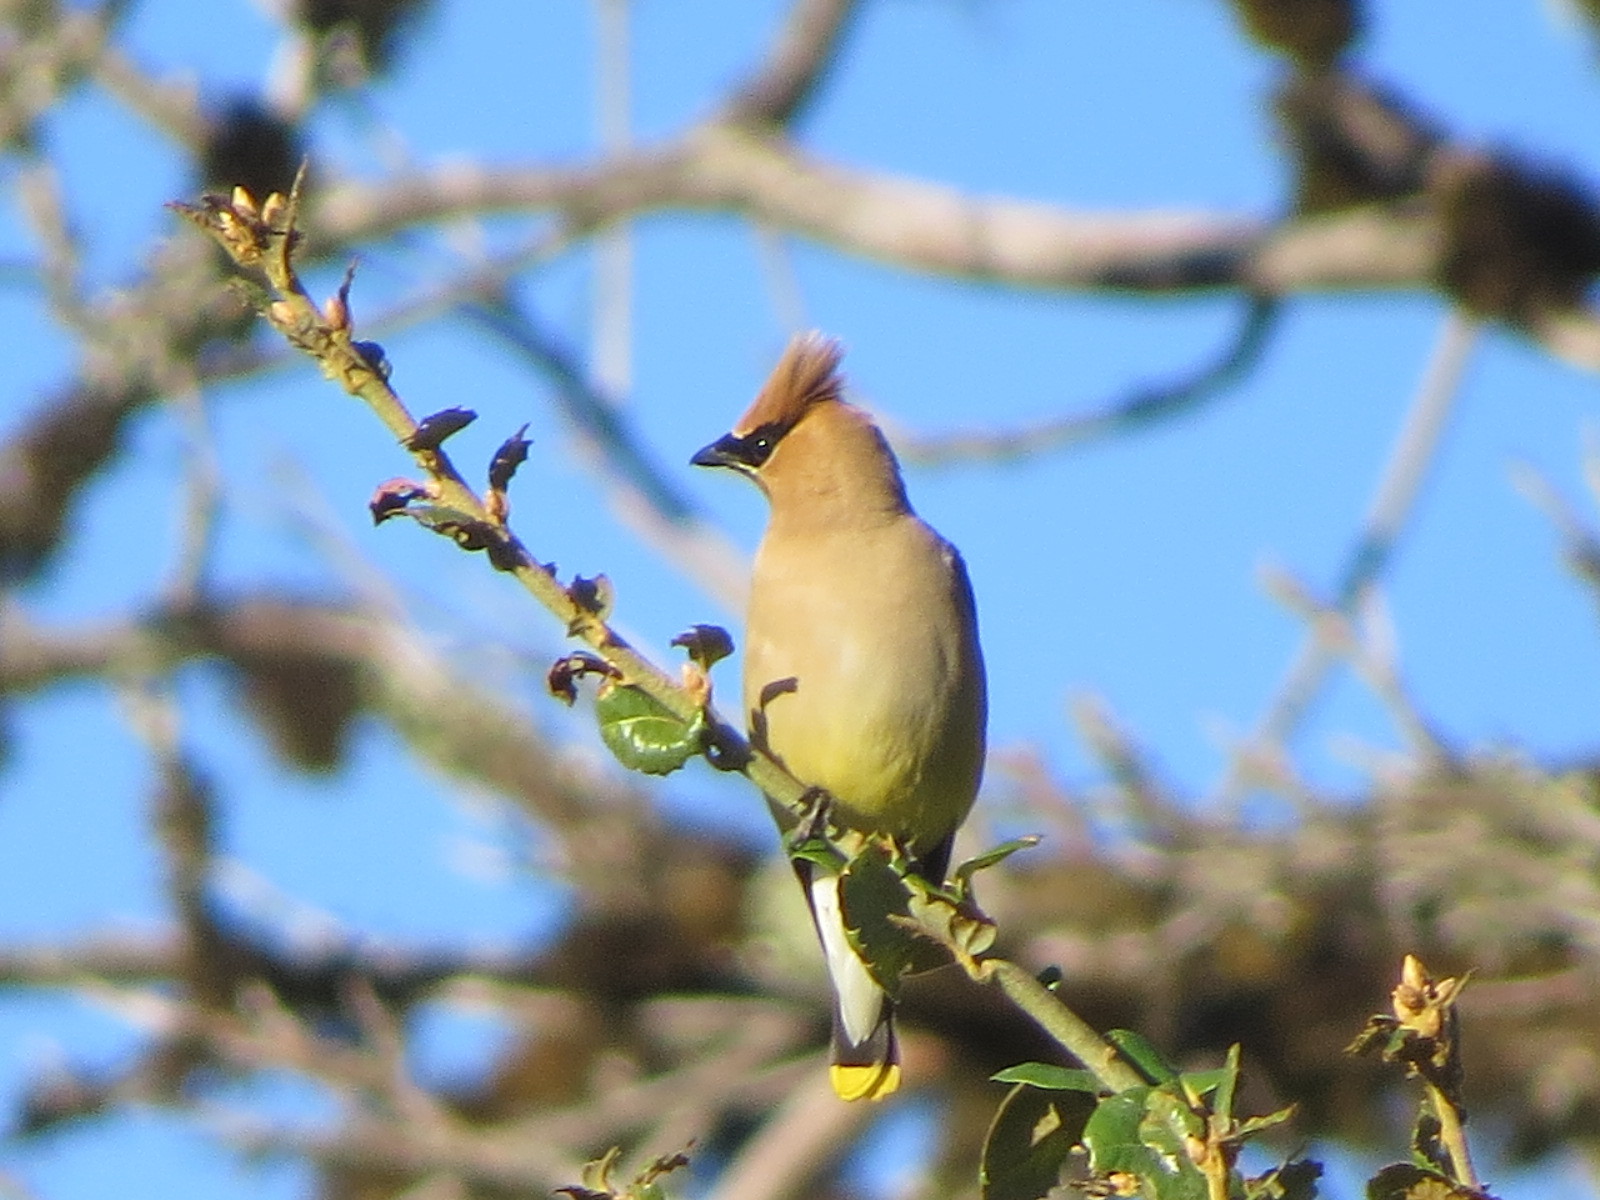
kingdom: Animalia
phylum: Chordata
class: Aves
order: Passeriformes
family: Bombycillidae
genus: Bombycilla
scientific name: Bombycilla cedrorum
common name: Cedar waxwing
